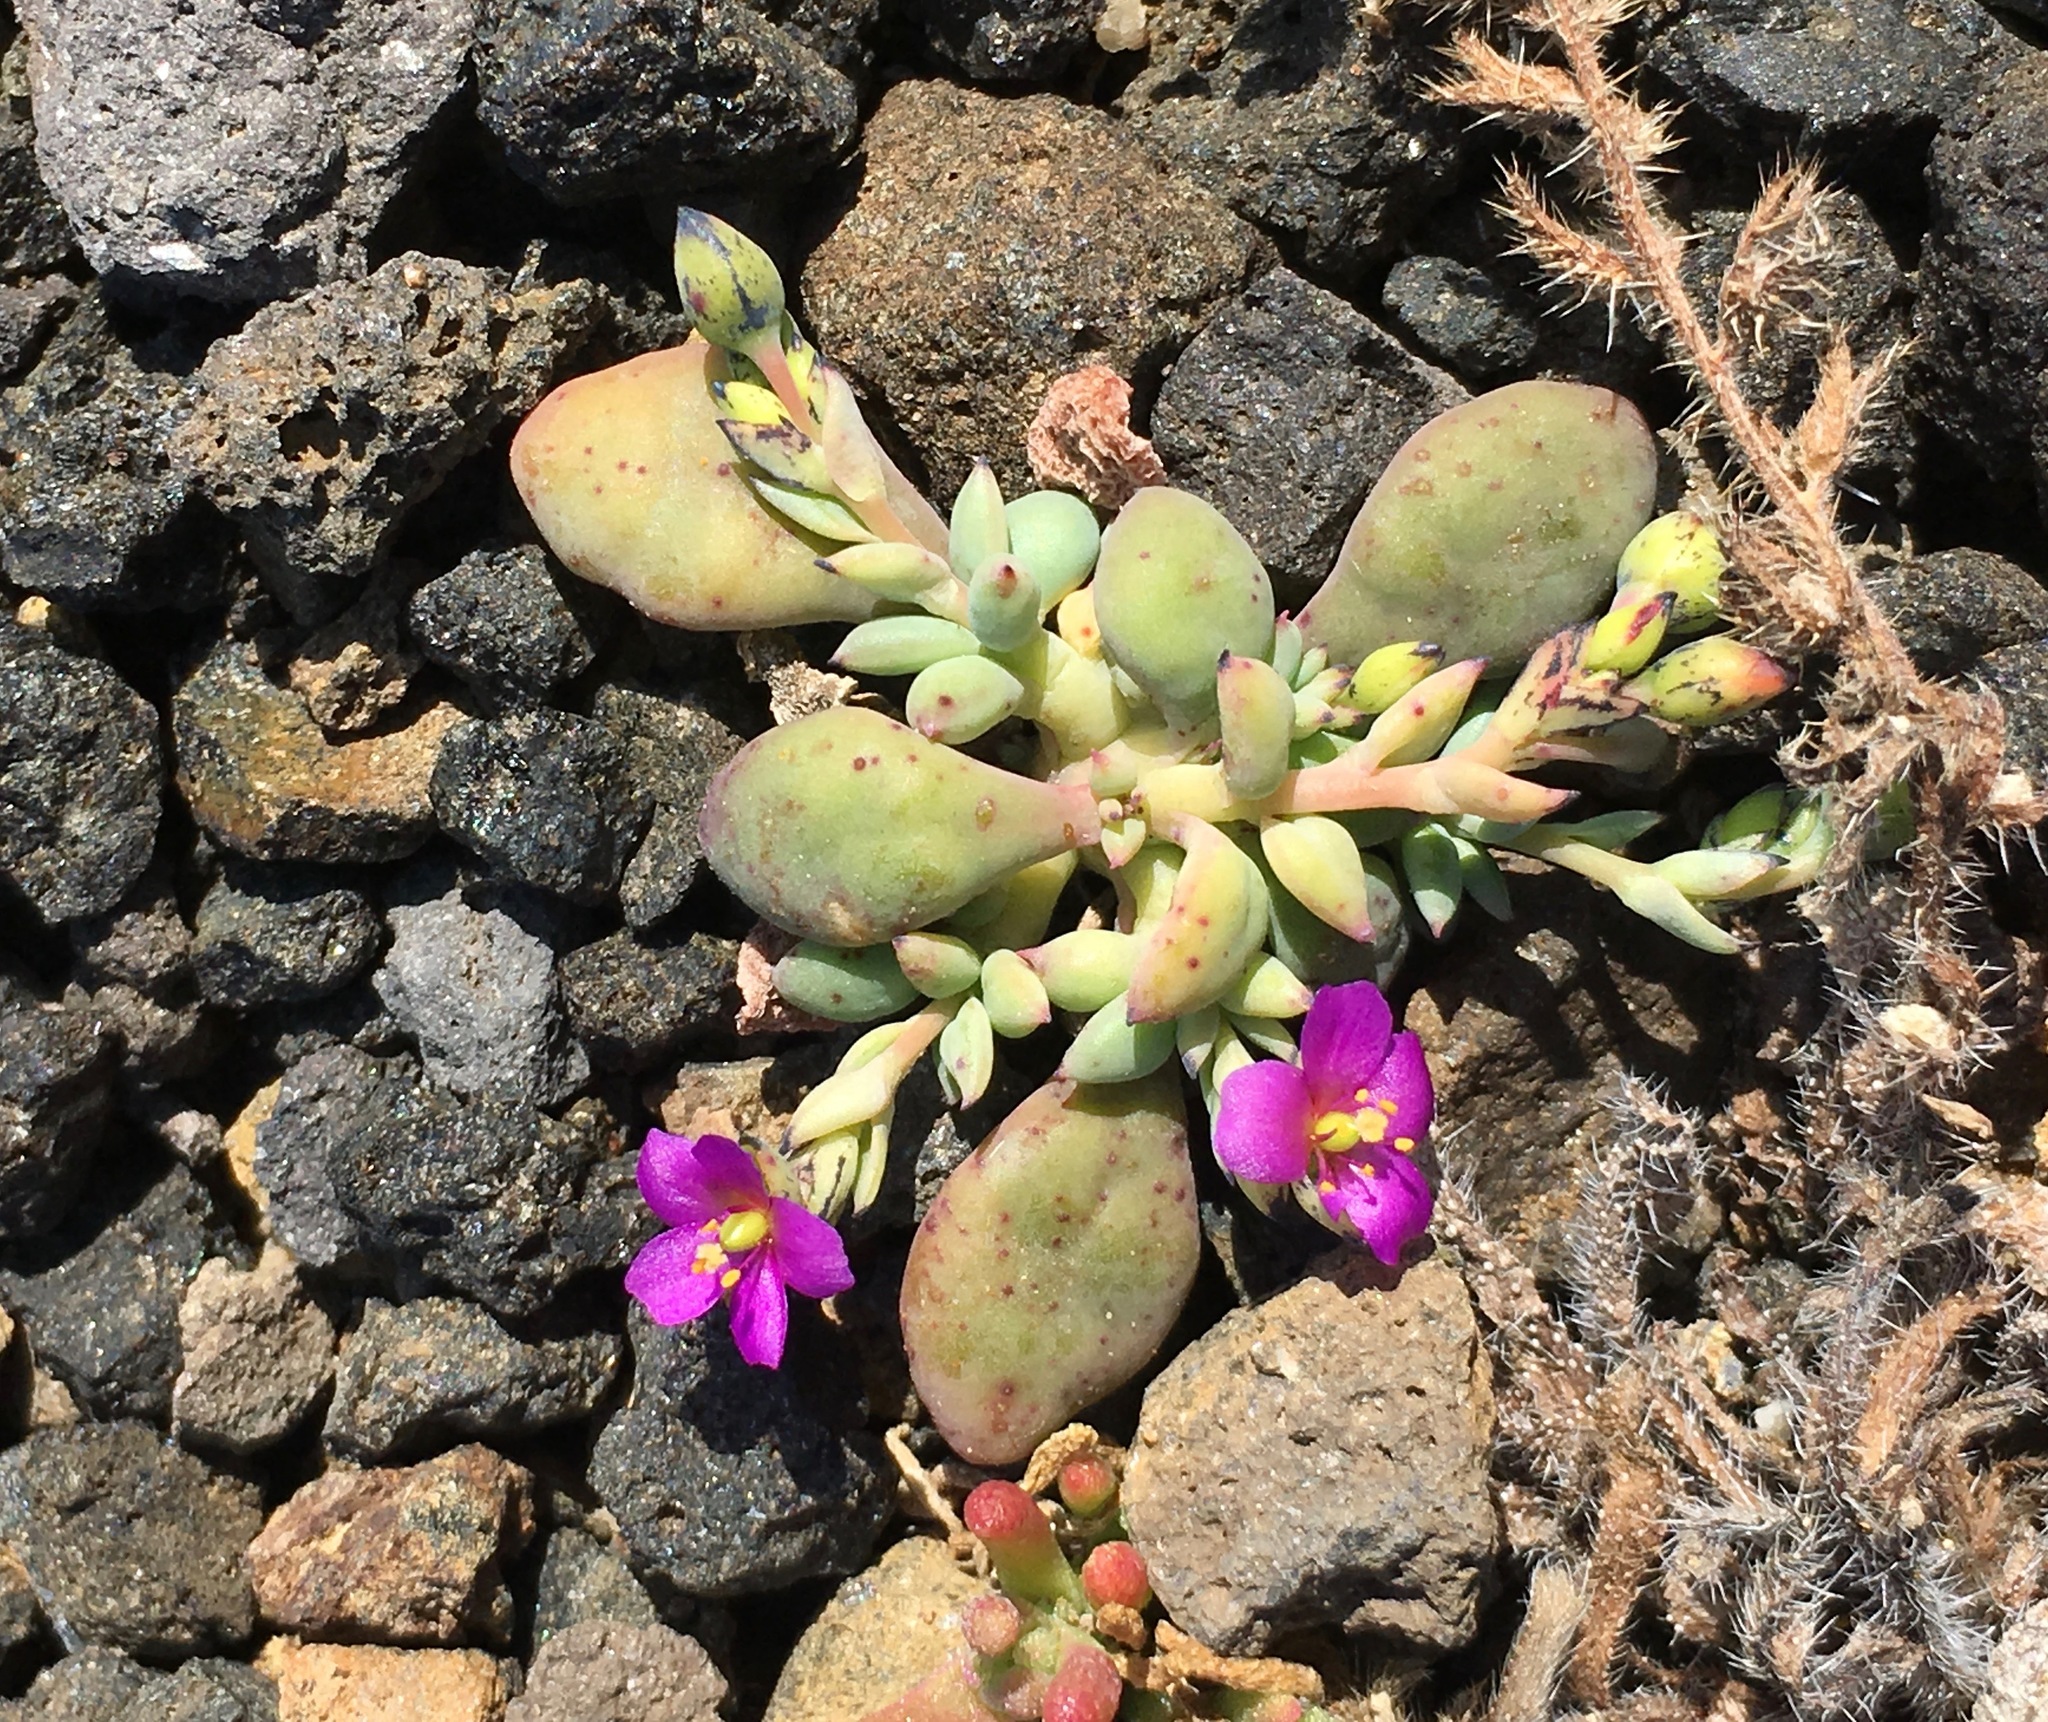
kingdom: Plantae
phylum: Tracheophyta
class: Magnoliopsida
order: Caryophyllales
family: Montiaceae
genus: Cistanthe
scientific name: Cistanthe maritima
